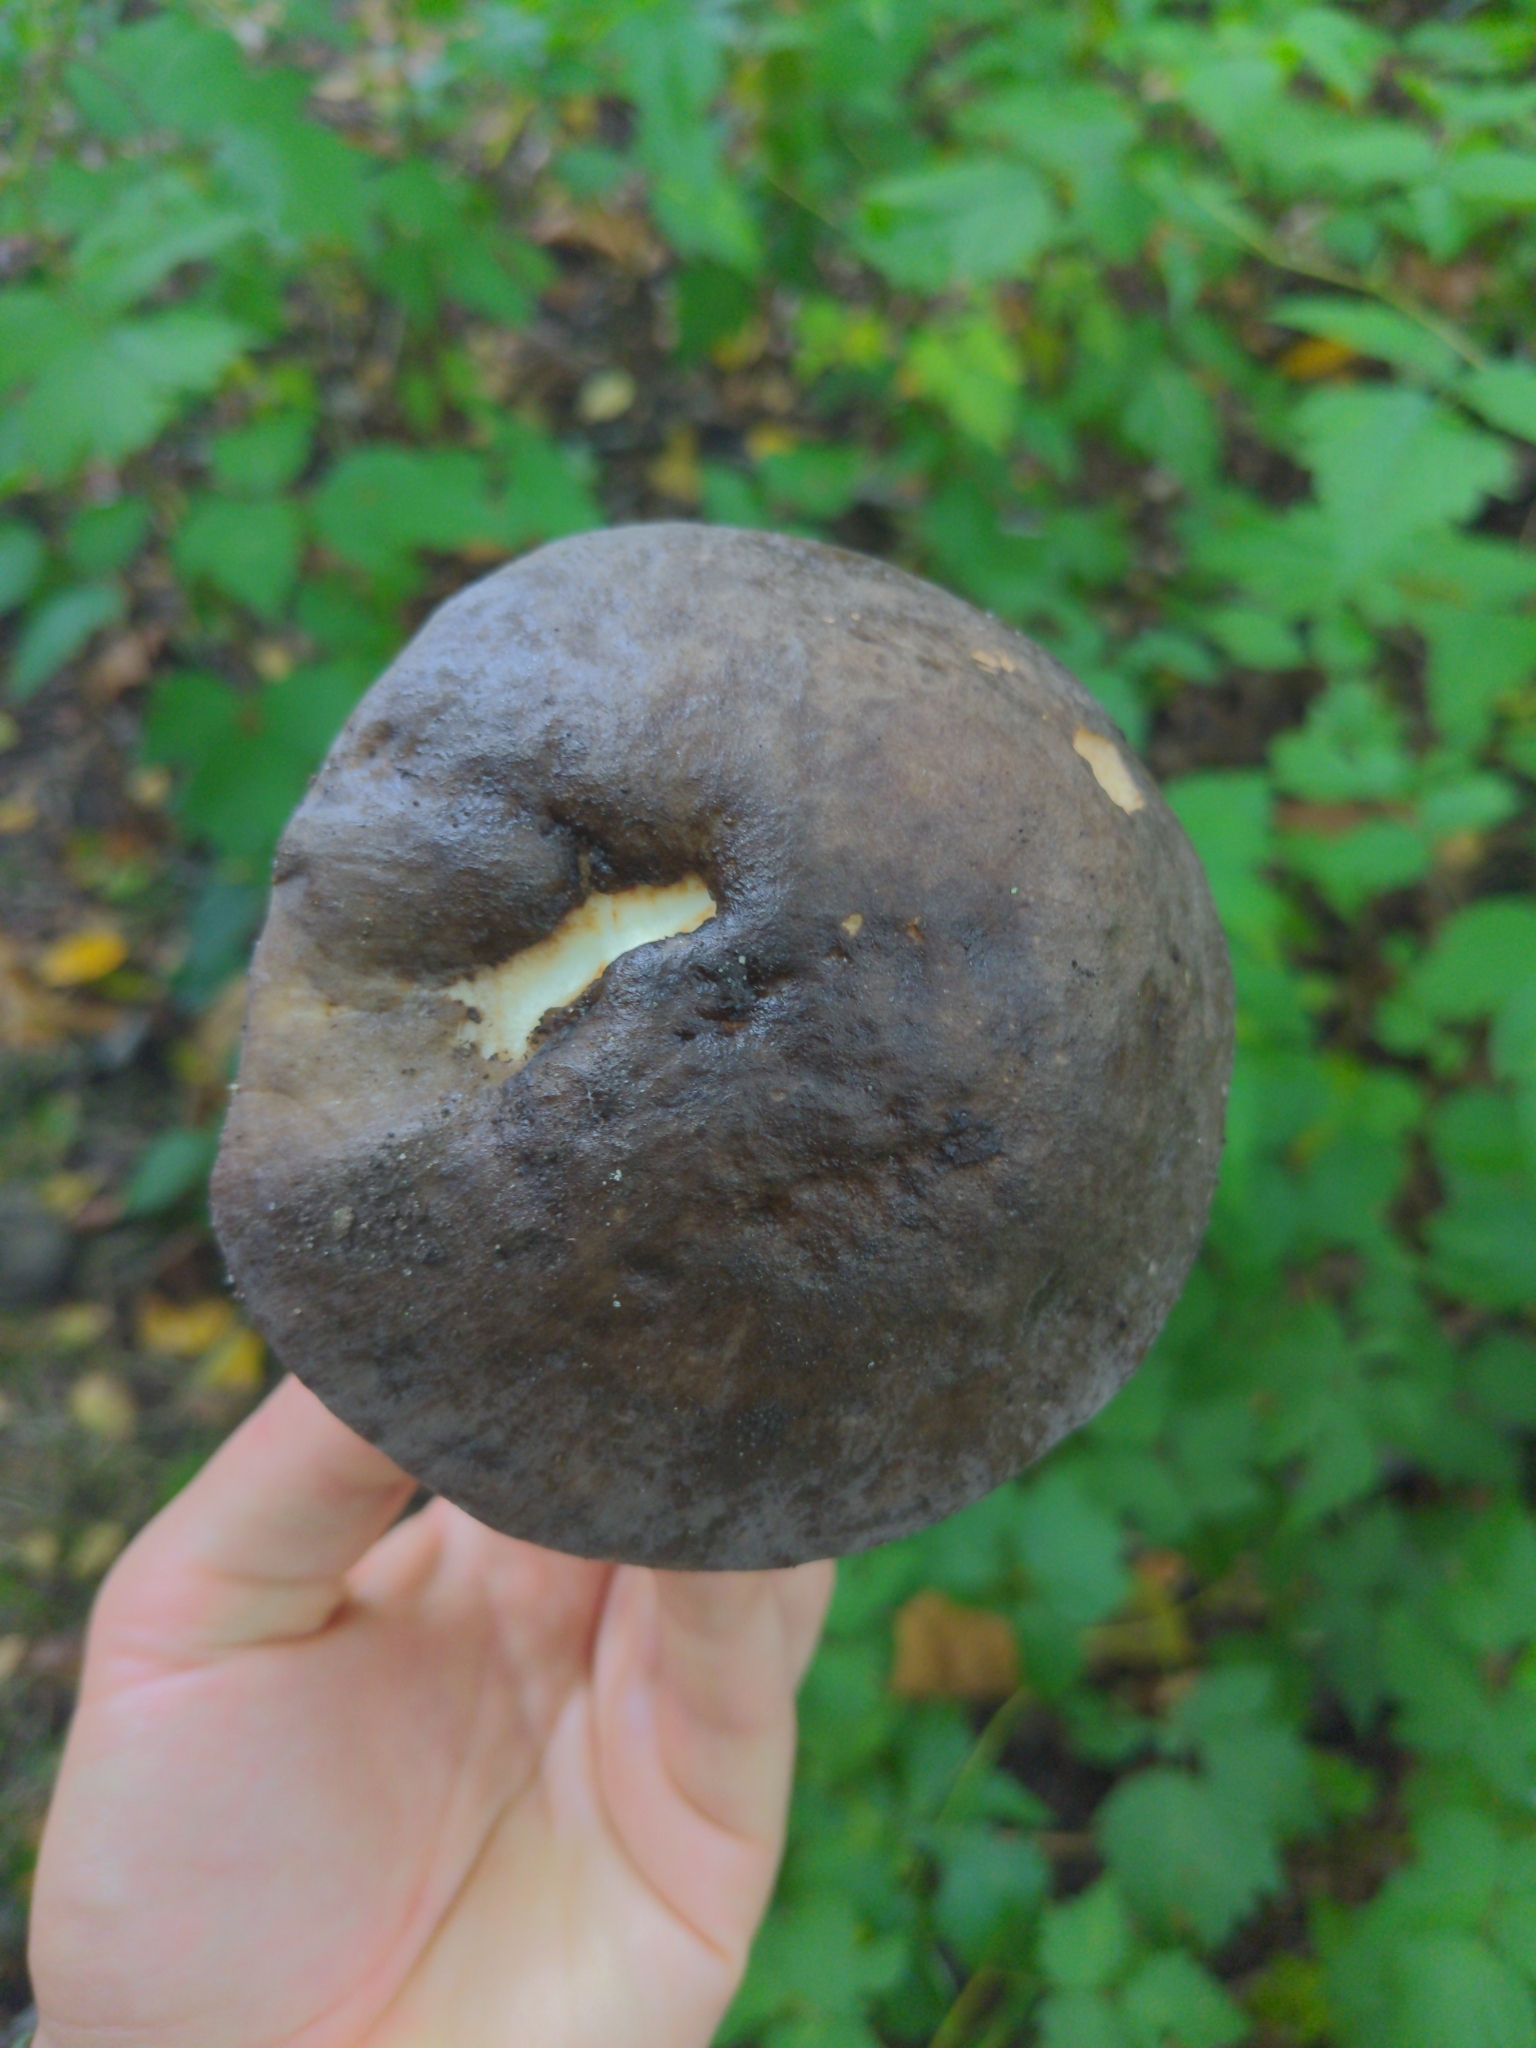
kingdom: Fungi
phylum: Basidiomycota
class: Agaricomycetes
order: Boletales
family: Boletaceae
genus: Leccinum
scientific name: Leccinum scabrum
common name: Blushing bolete
